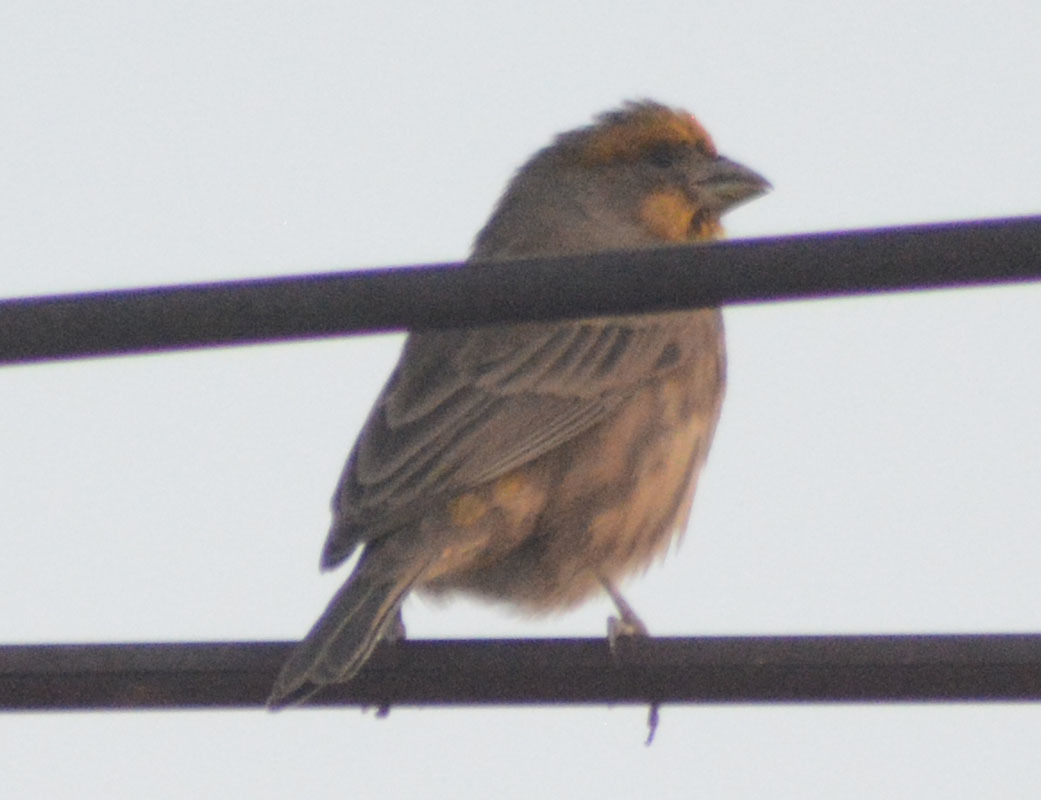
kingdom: Animalia
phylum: Chordata
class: Aves
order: Passeriformes
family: Fringillidae
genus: Haemorhous
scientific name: Haemorhous mexicanus
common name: House finch
